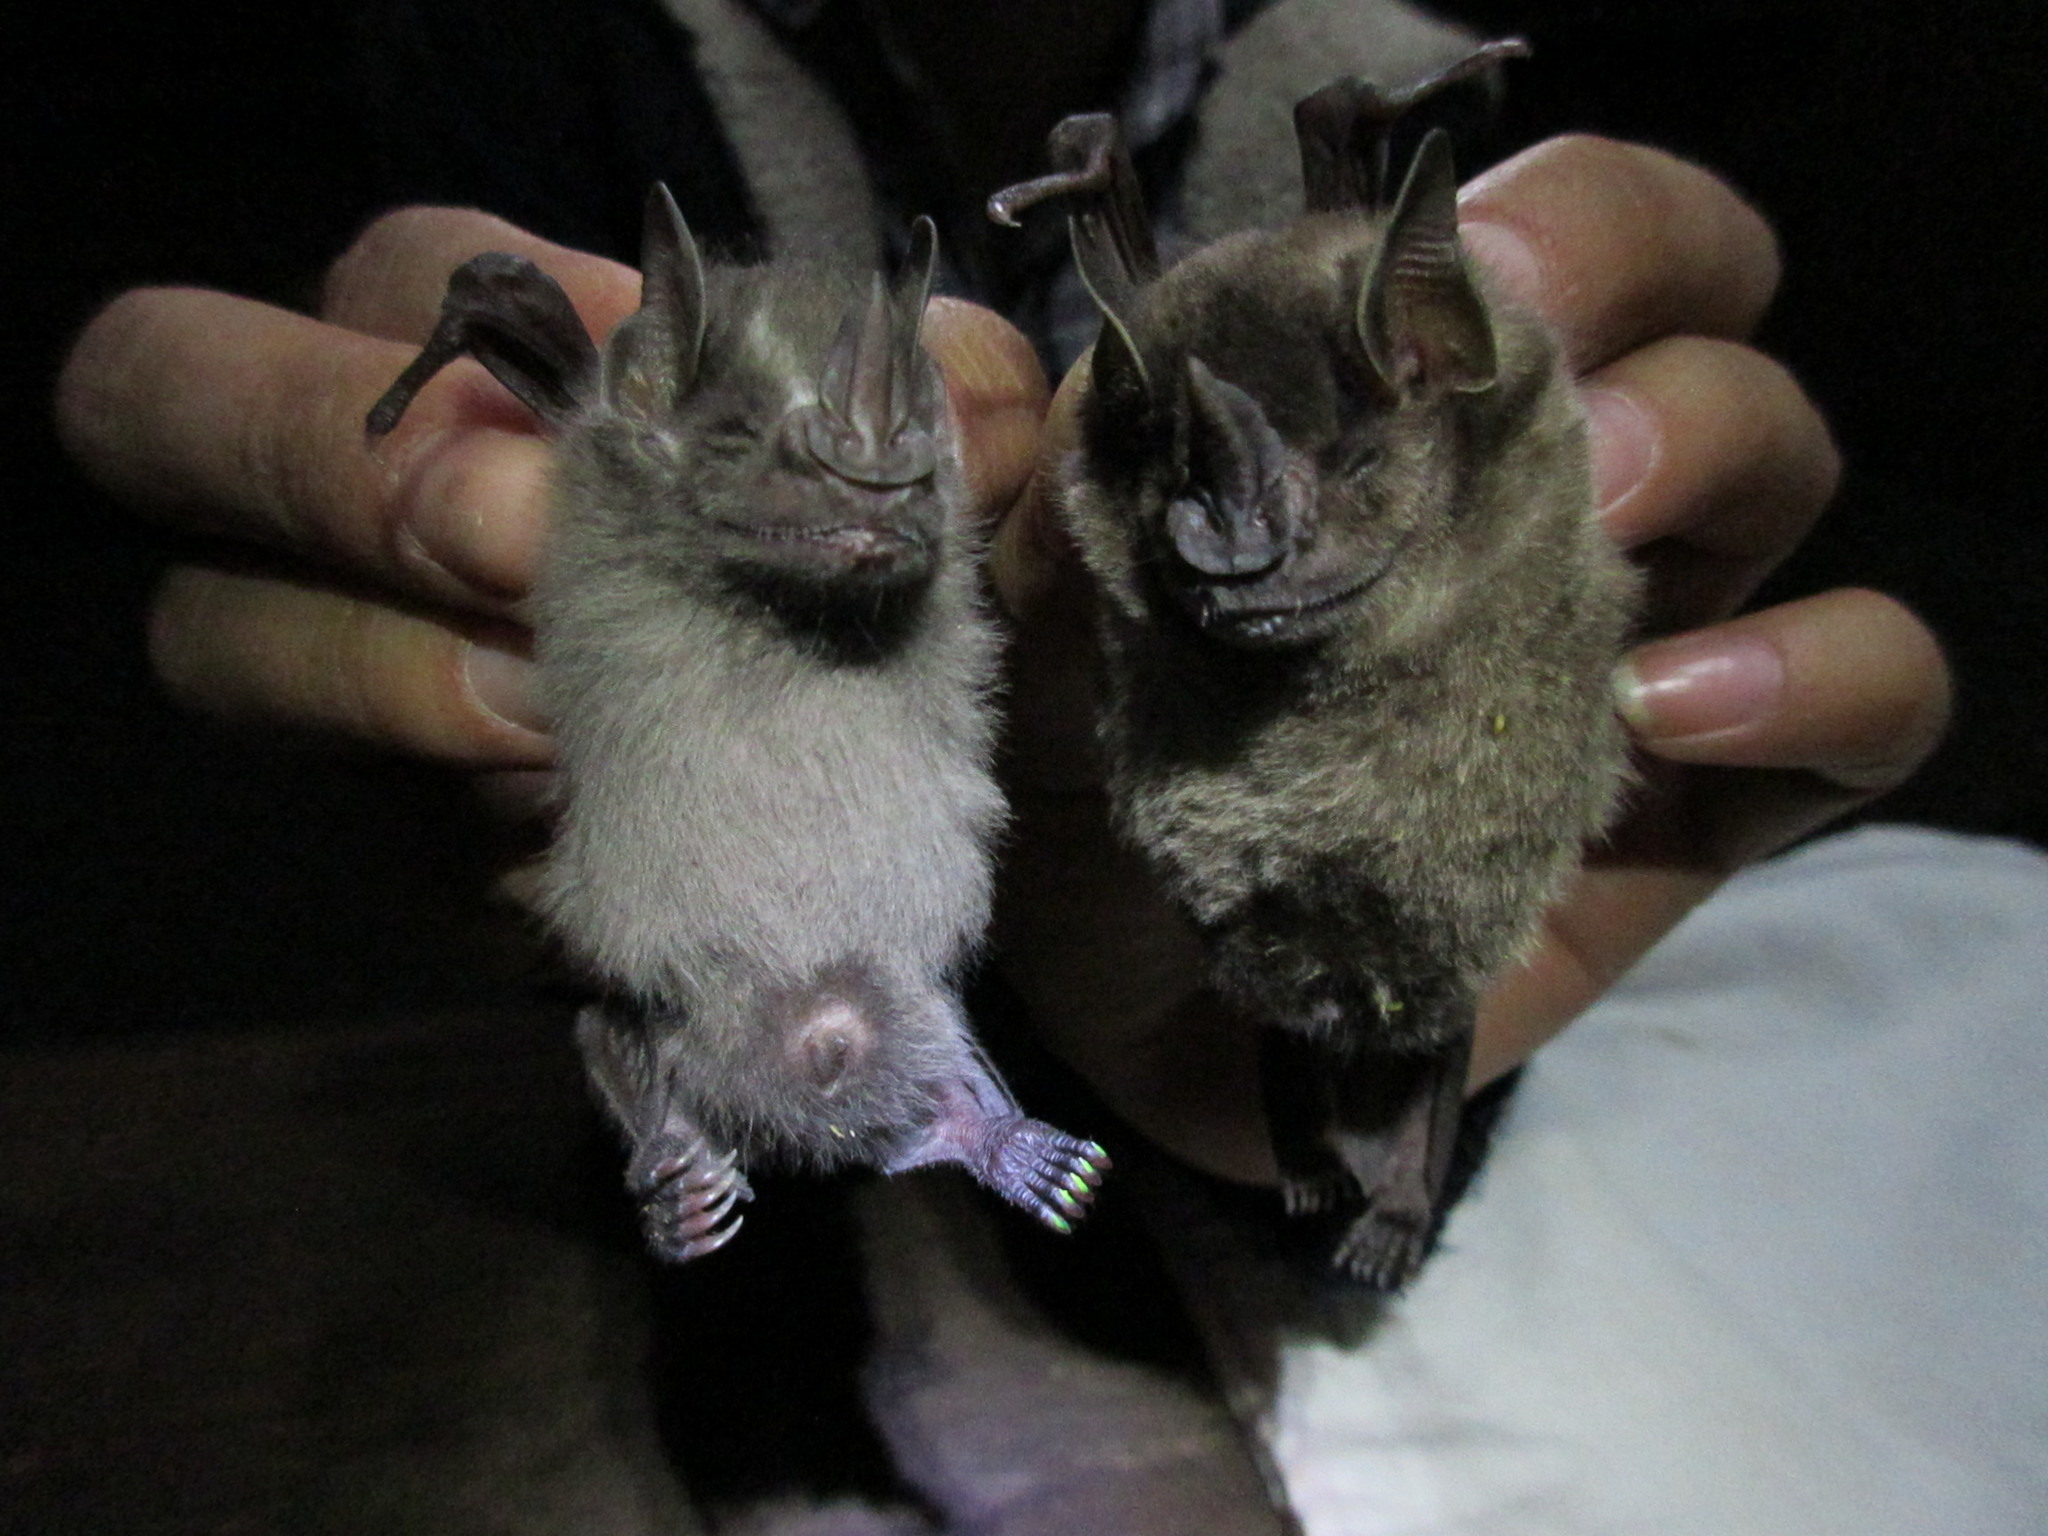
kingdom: Animalia
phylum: Chordata
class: Mammalia
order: Chiroptera
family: Phyllostomidae
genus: Artibeus
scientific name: Artibeus aztecus
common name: Aztec fruit-eating bat
